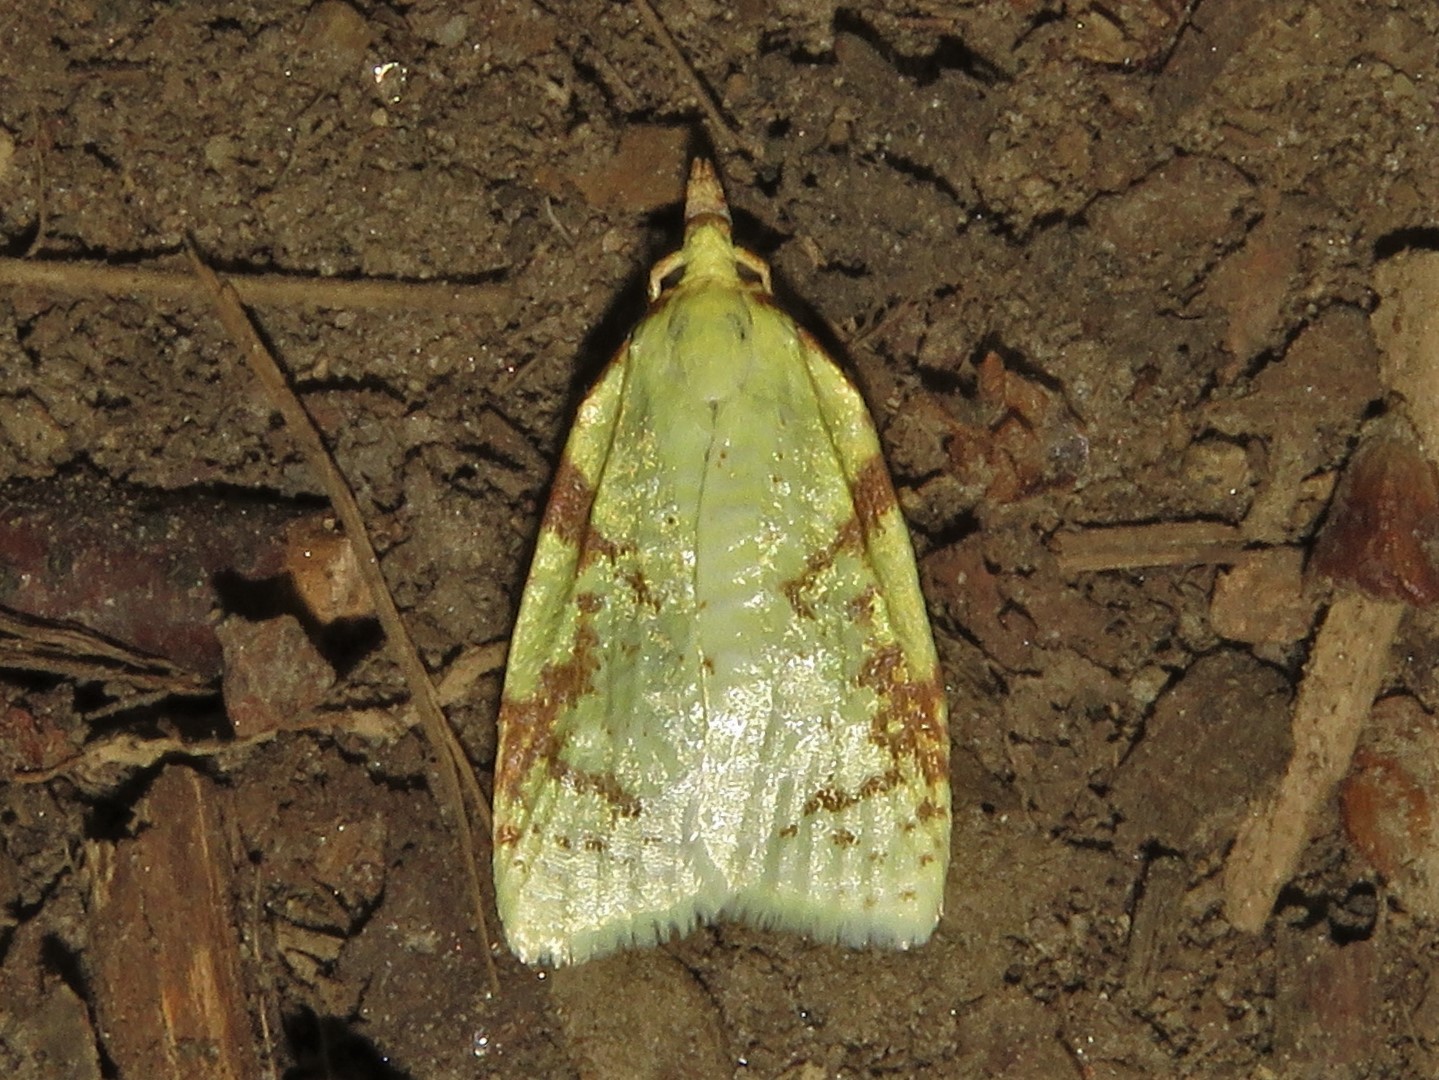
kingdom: Animalia
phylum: Arthropoda
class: Insecta
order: Lepidoptera
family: Tortricidae
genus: Cenopis
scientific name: Cenopis pettitana
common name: Maple-basswood leafroller moth
